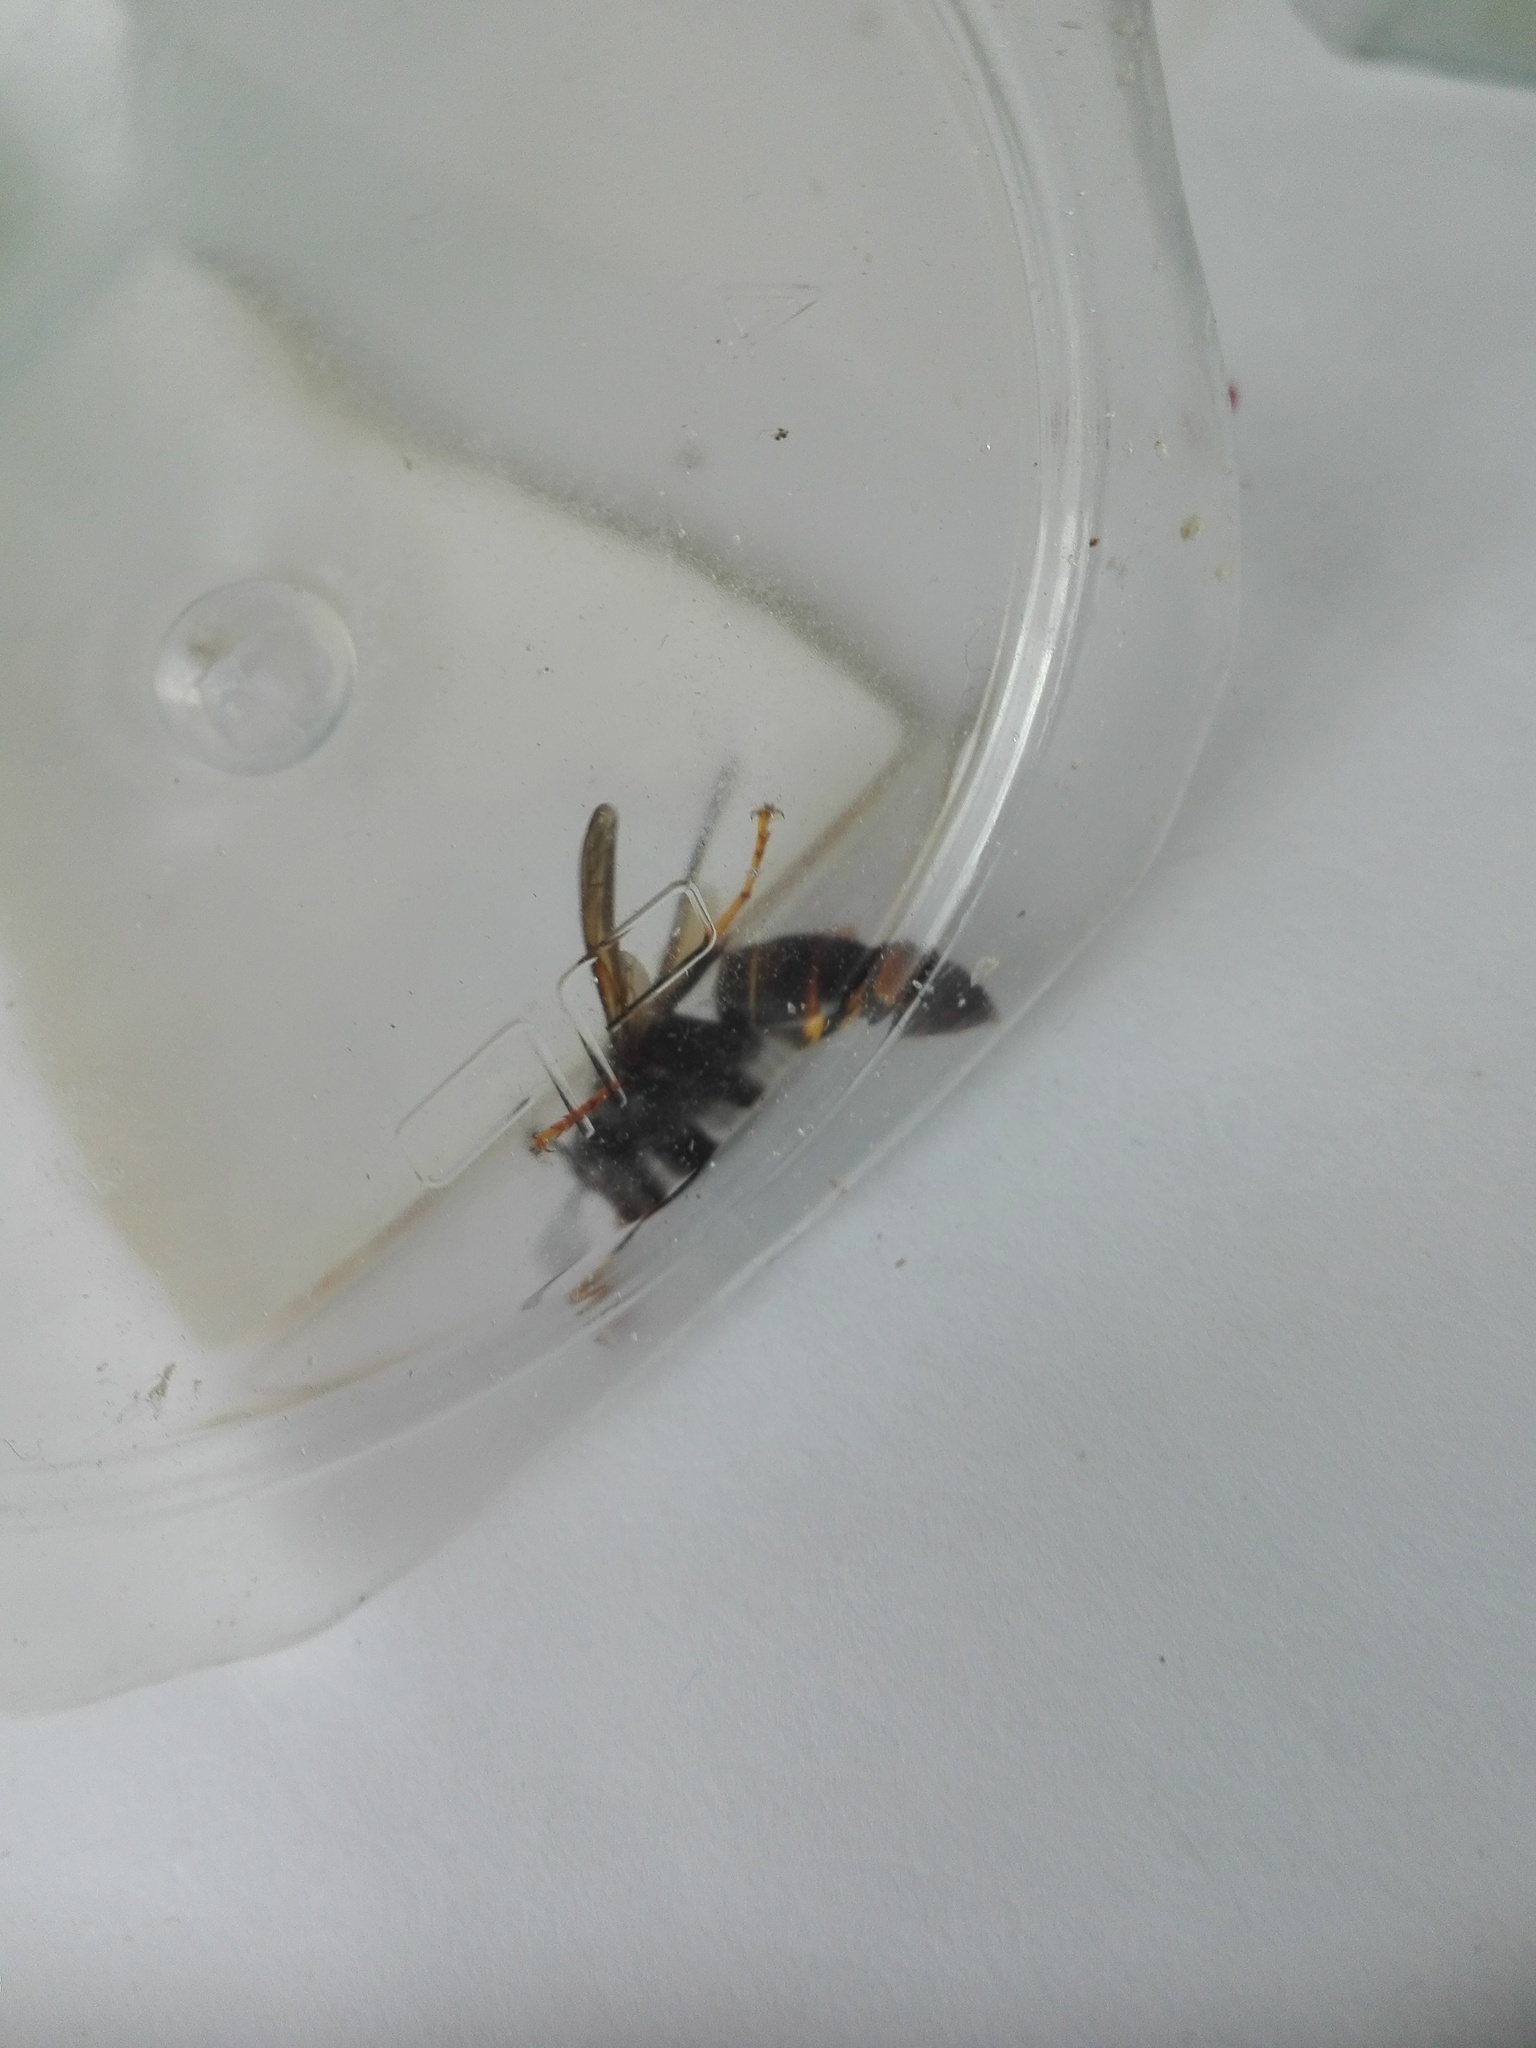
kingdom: Animalia
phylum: Arthropoda
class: Insecta
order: Hymenoptera
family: Vespidae
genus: Vespa
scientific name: Vespa velutina
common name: Asian hornet
